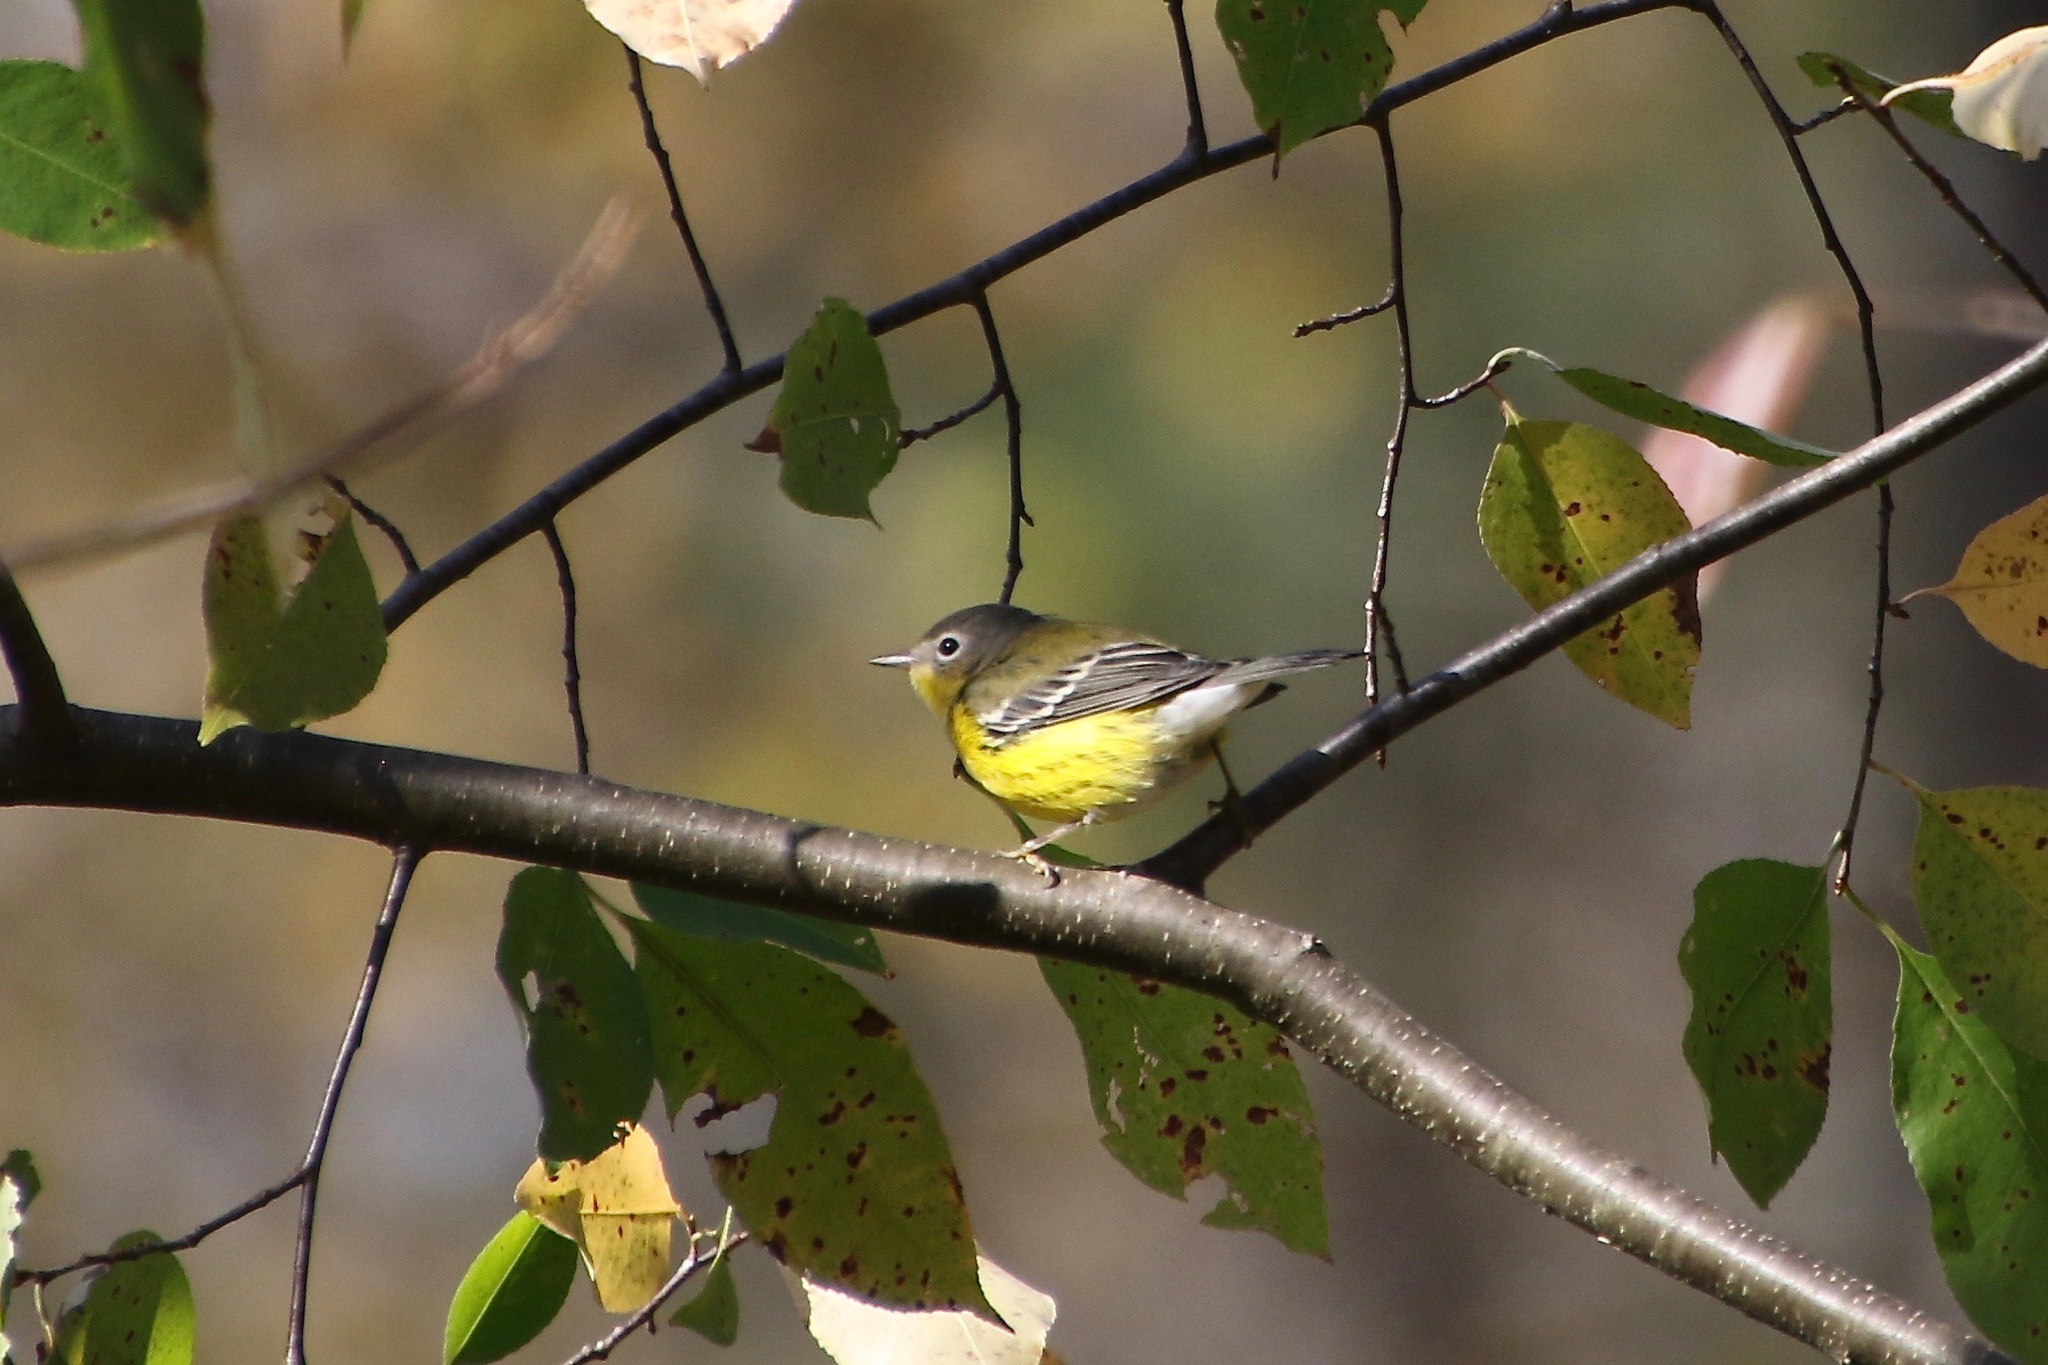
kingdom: Animalia
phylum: Chordata
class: Aves
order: Passeriformes
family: Parulidae
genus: Setophaga
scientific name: Setophaga magnolia
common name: Magnolia warbler
